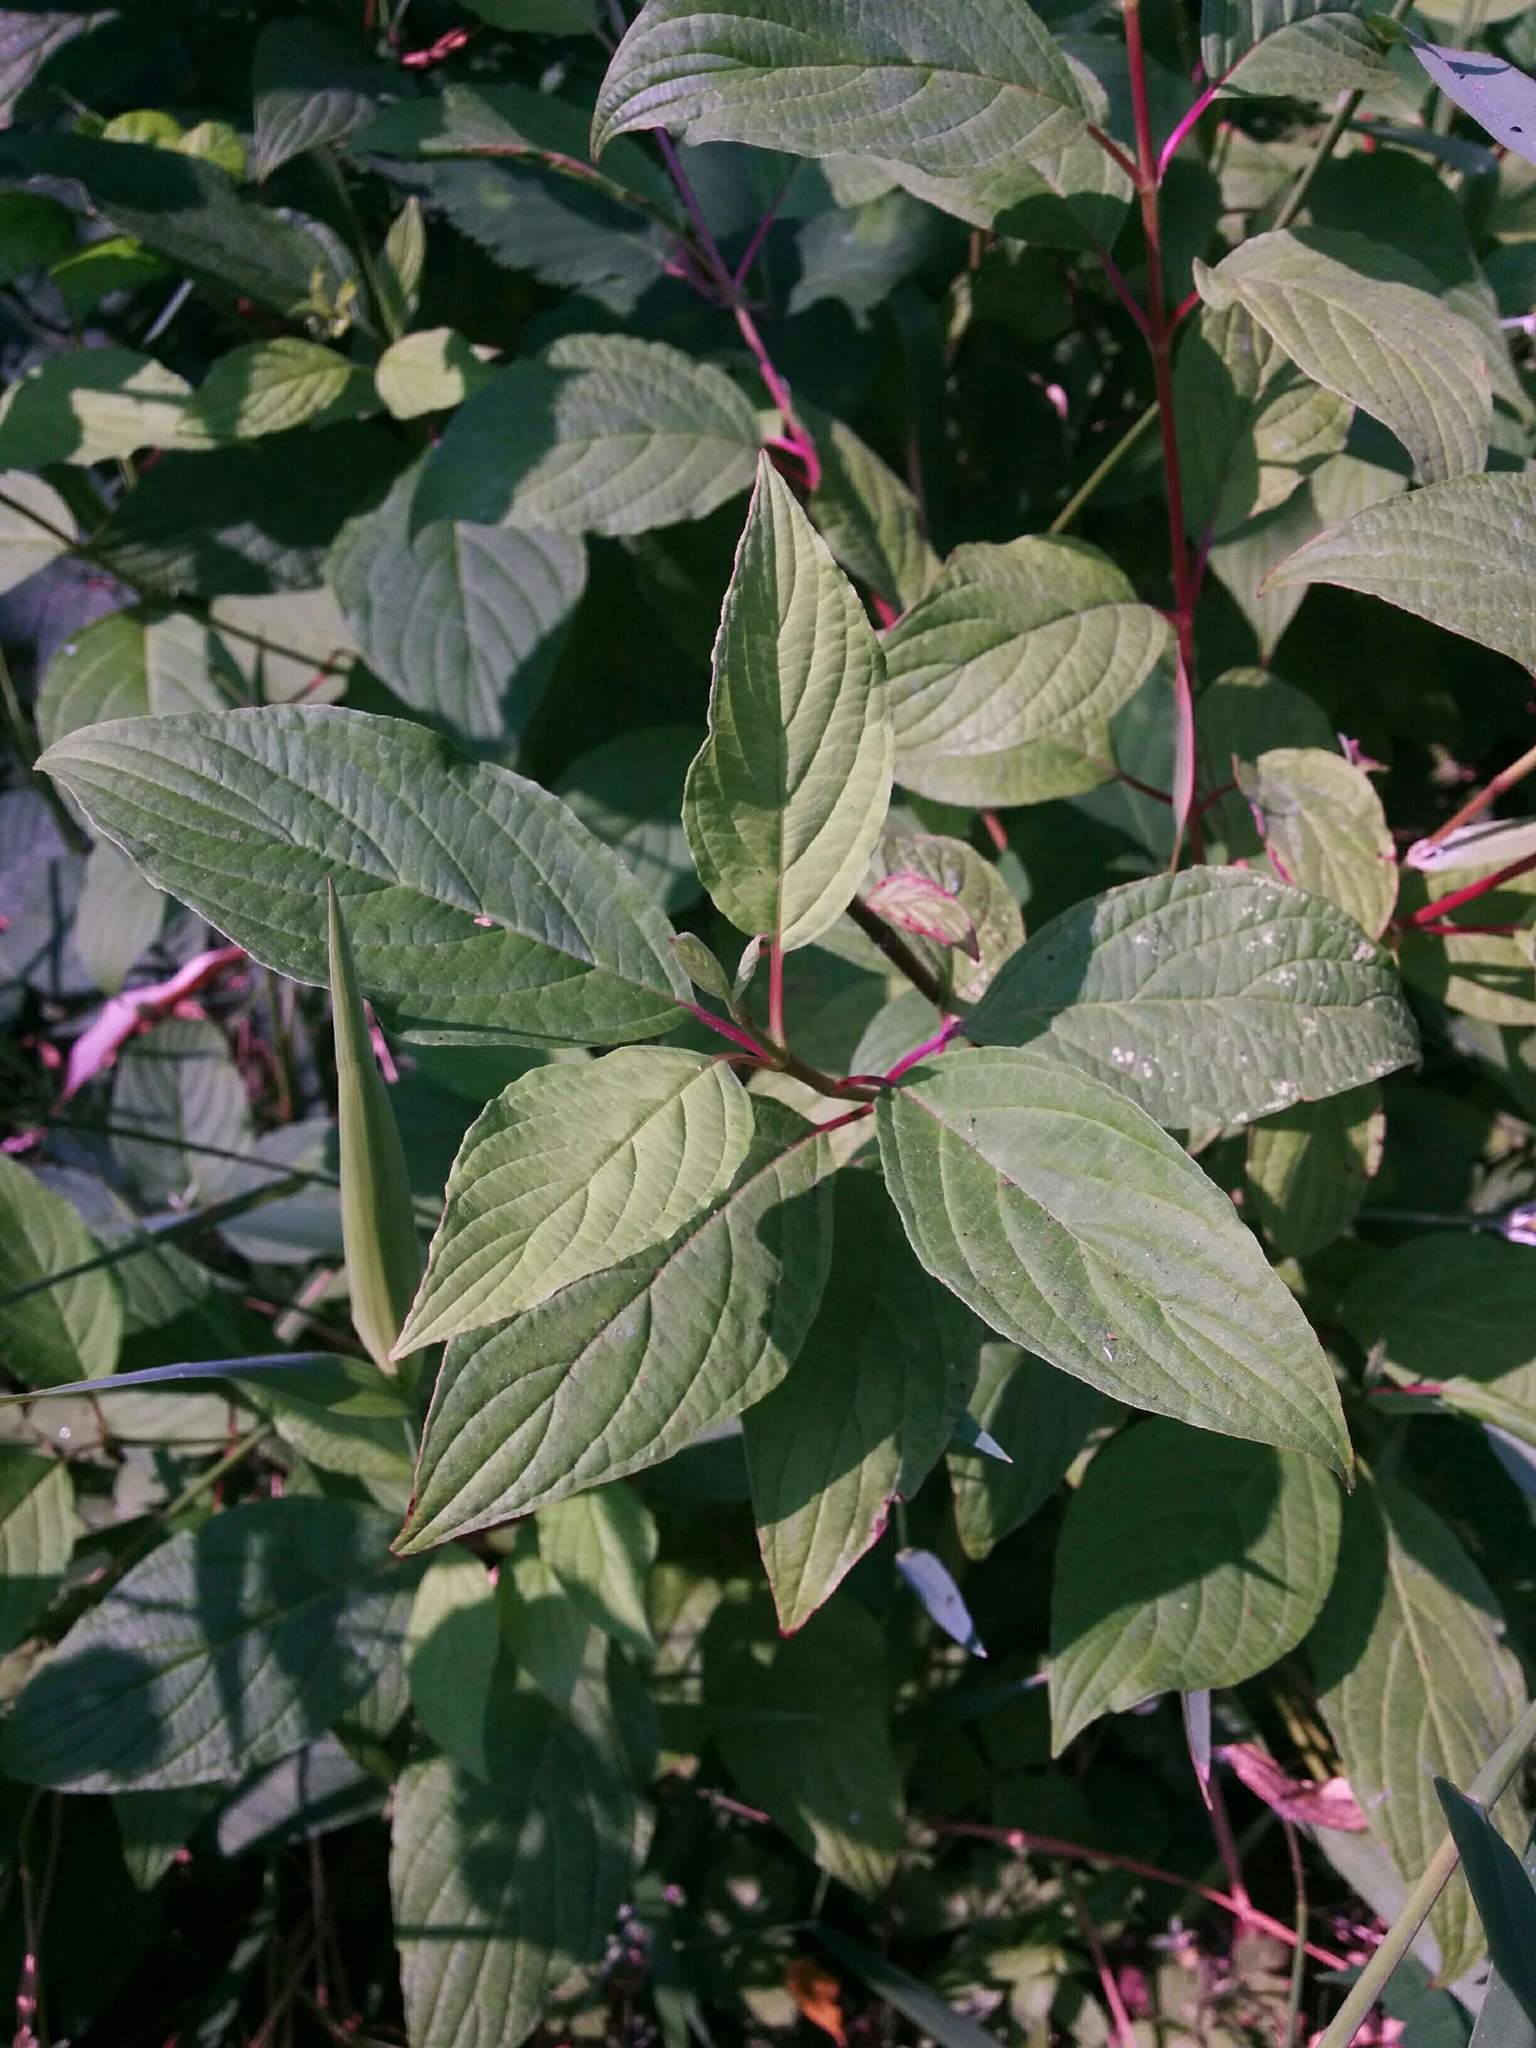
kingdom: Plantae
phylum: Tracheophyta
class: Magnoliopsida
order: Cornales
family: Cornaceae
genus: Cornus
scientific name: Cornus sericea
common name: Red-osier dogwood
